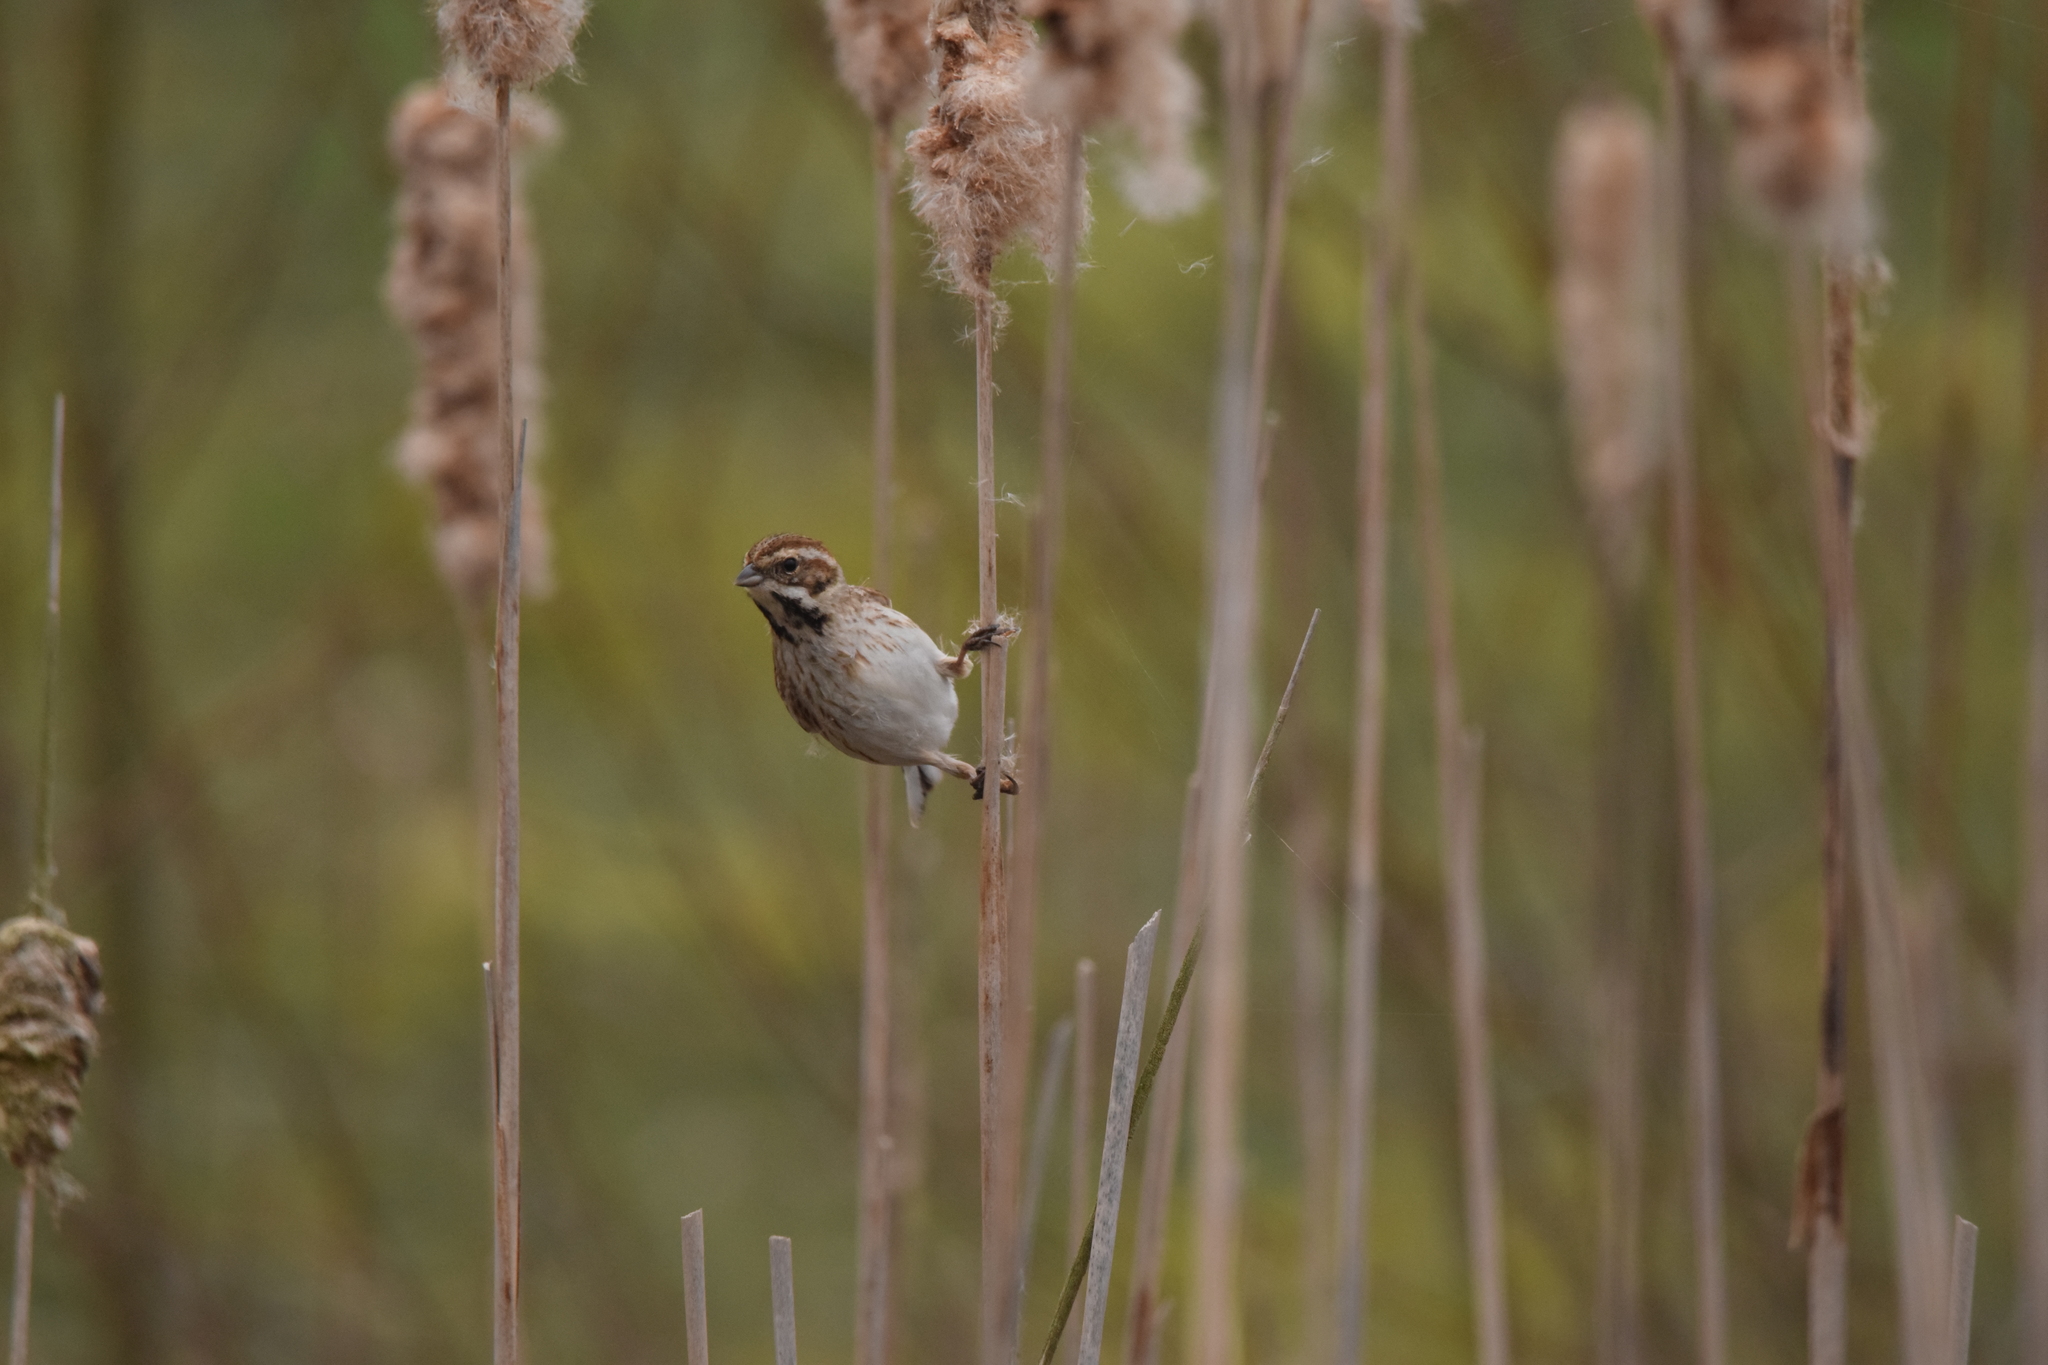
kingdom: Animalia
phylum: Chordata
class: Aves
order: Passeriformes
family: Emberizidae
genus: Emberiza
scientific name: Emberiza schoeniclus
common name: Reed bunting
